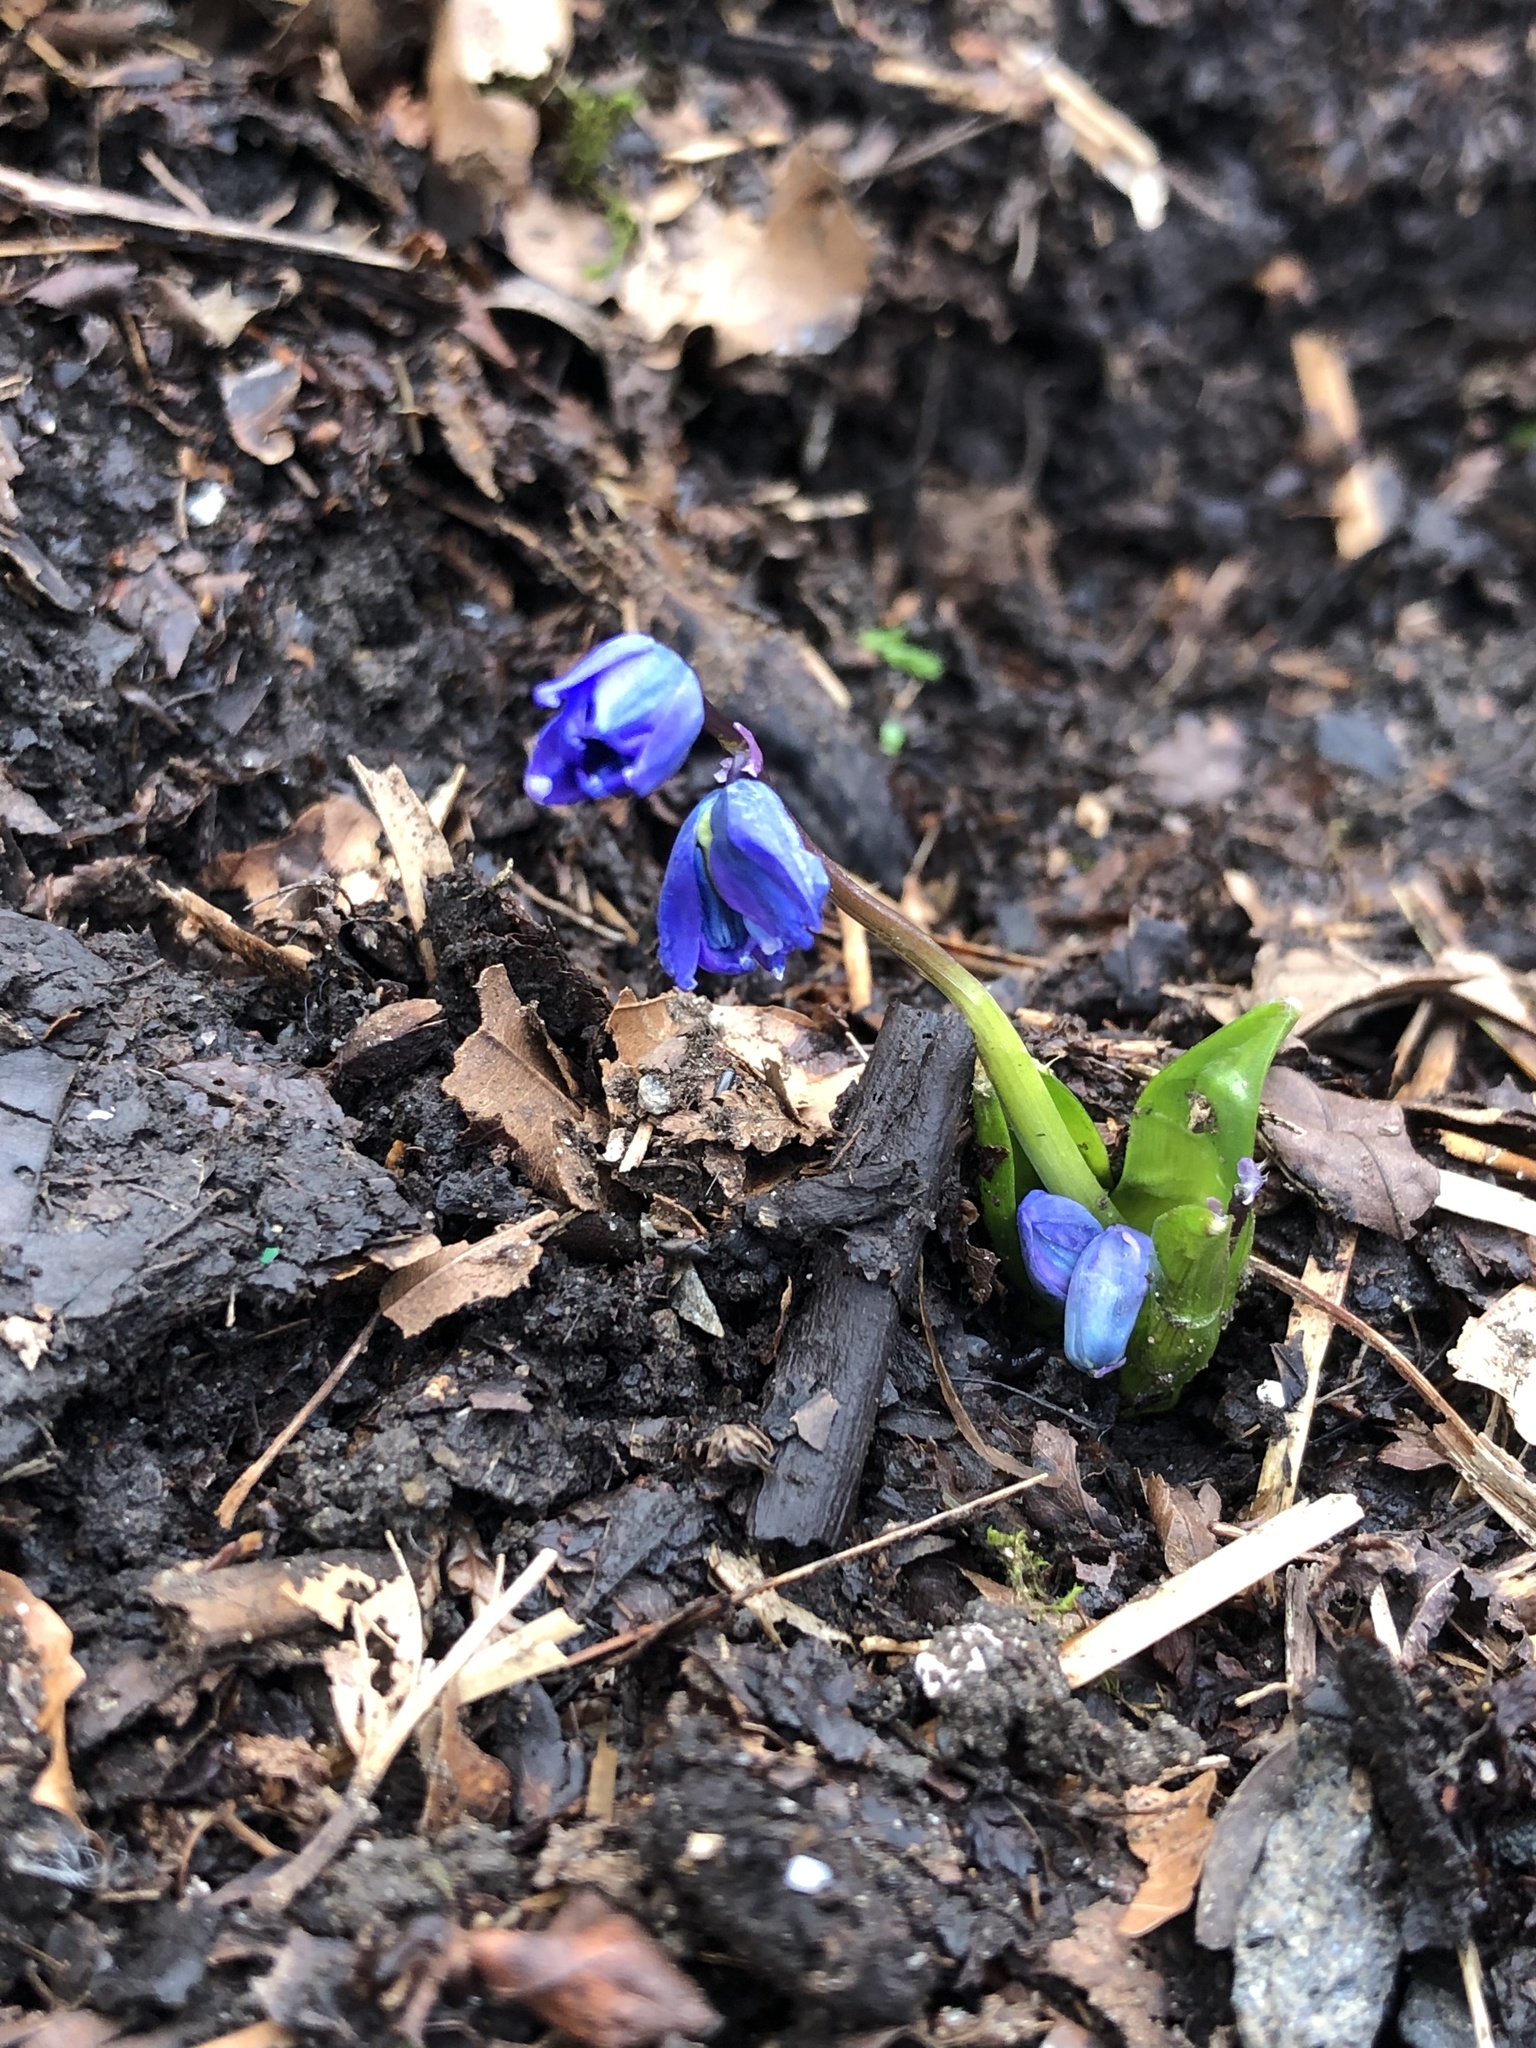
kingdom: Plantae
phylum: Tracheophyta
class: Liliopsida
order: Asparagales
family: Asparagaceae
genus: Scilla
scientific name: Scilla siberica
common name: Siberian squill
